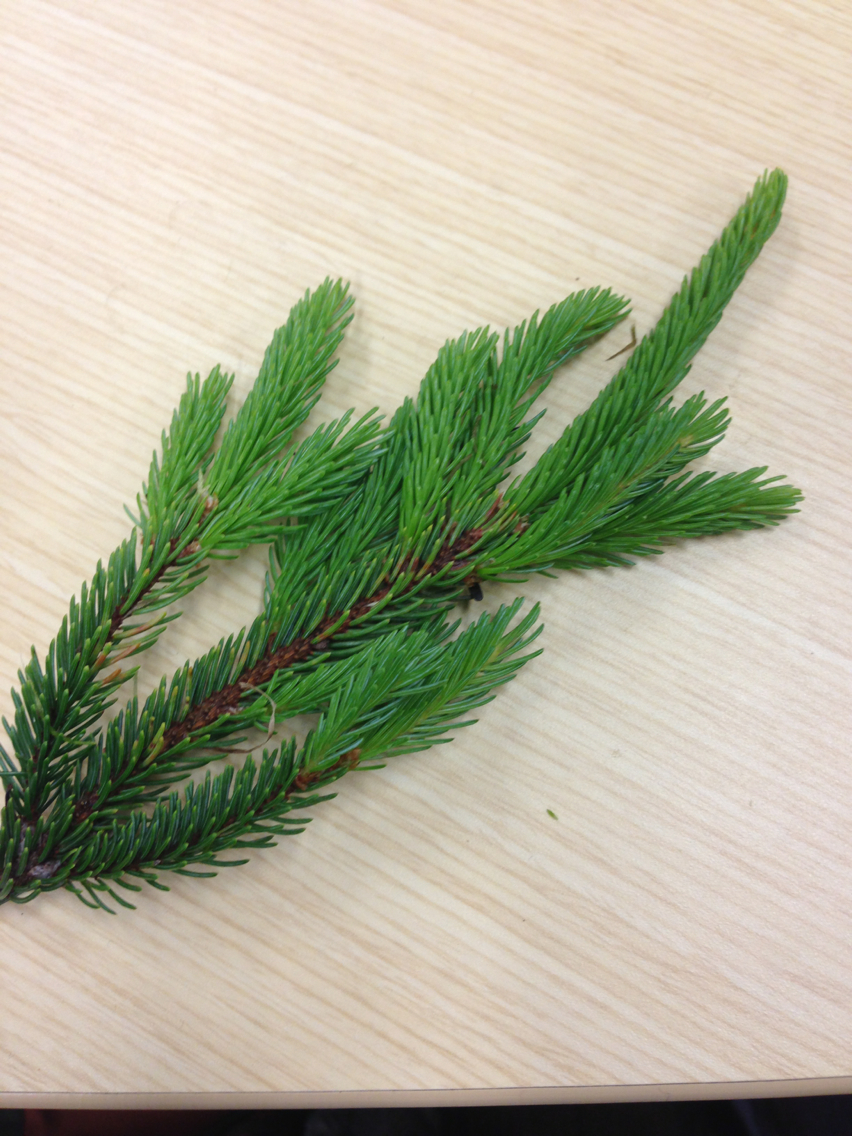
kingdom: Plantae
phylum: Tracheophyta
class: Pinopsida
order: Pinales
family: Pinaceae
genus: Picea
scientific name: Picea mariana
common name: Black spruce
